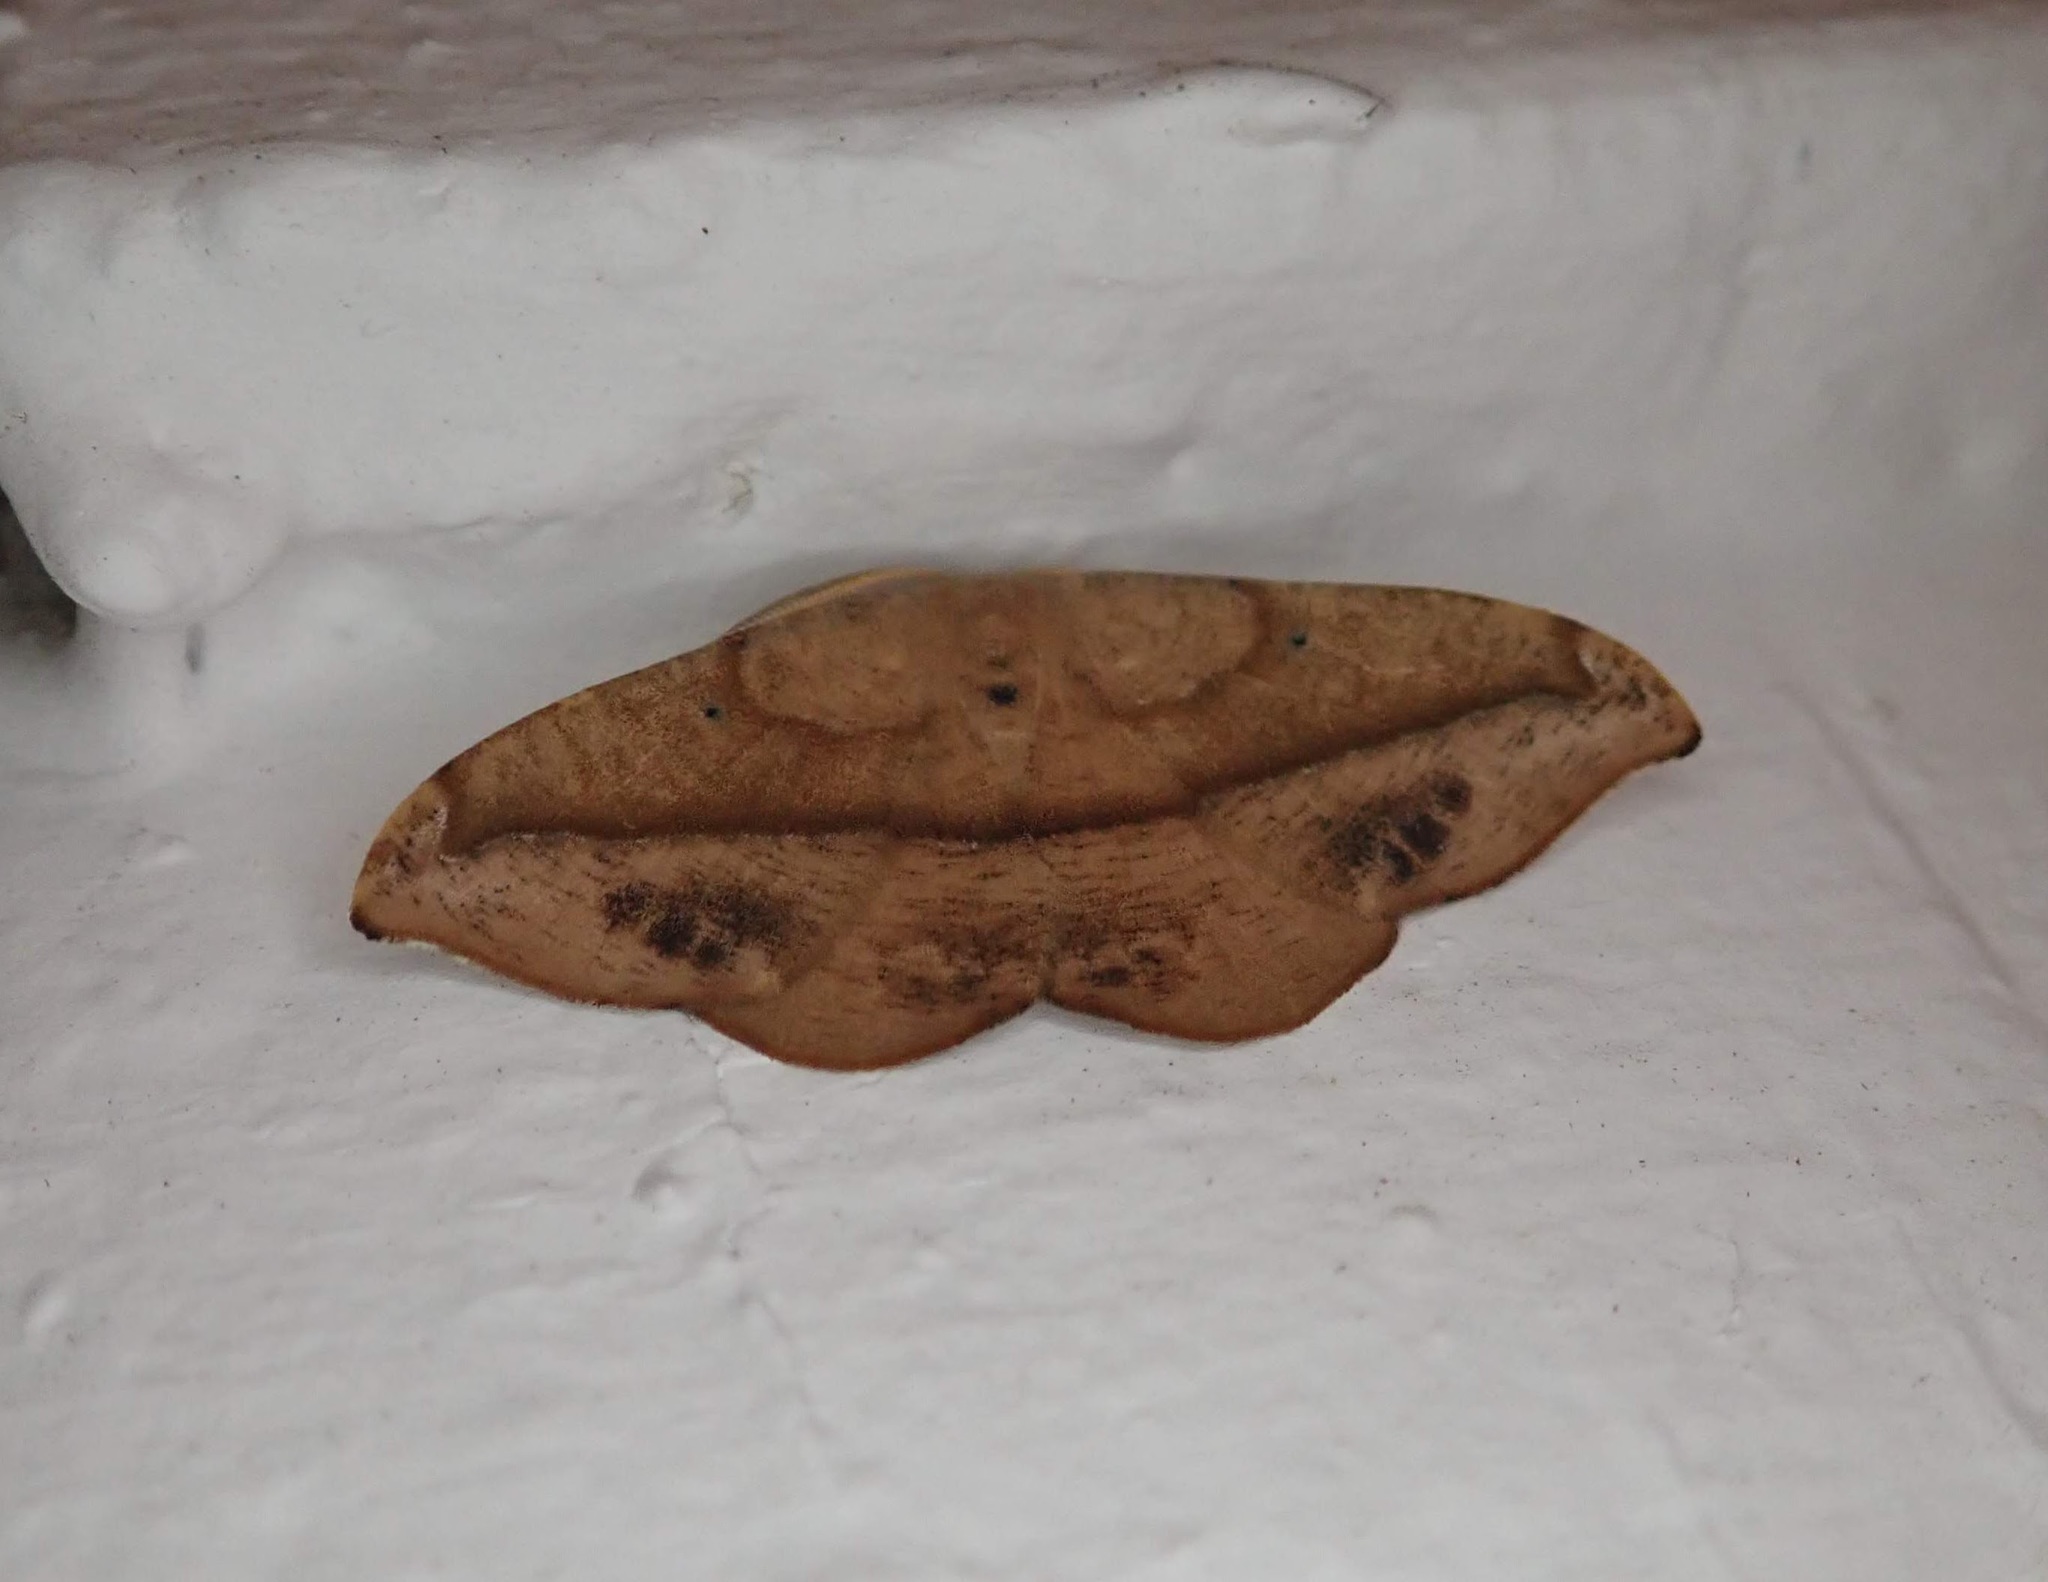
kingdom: Animalia
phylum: Arthropoda
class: Insecta
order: Lepidoptera
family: Geometridae
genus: Patalene
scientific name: Patalene olyzonaria
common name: Juniper geometer moth
